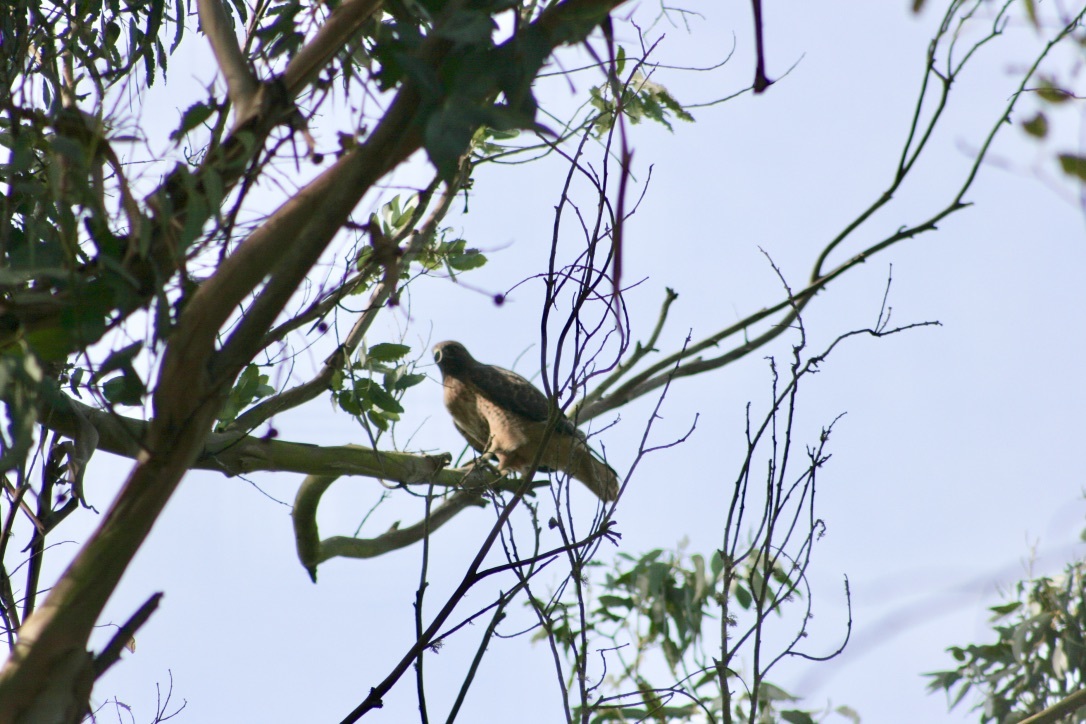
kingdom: Animalia
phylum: Chordata
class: Aves
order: Accipitriformes
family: Accipitridae
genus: Buteo
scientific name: Buteo jamaicensis
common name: Red-tailed hawk
